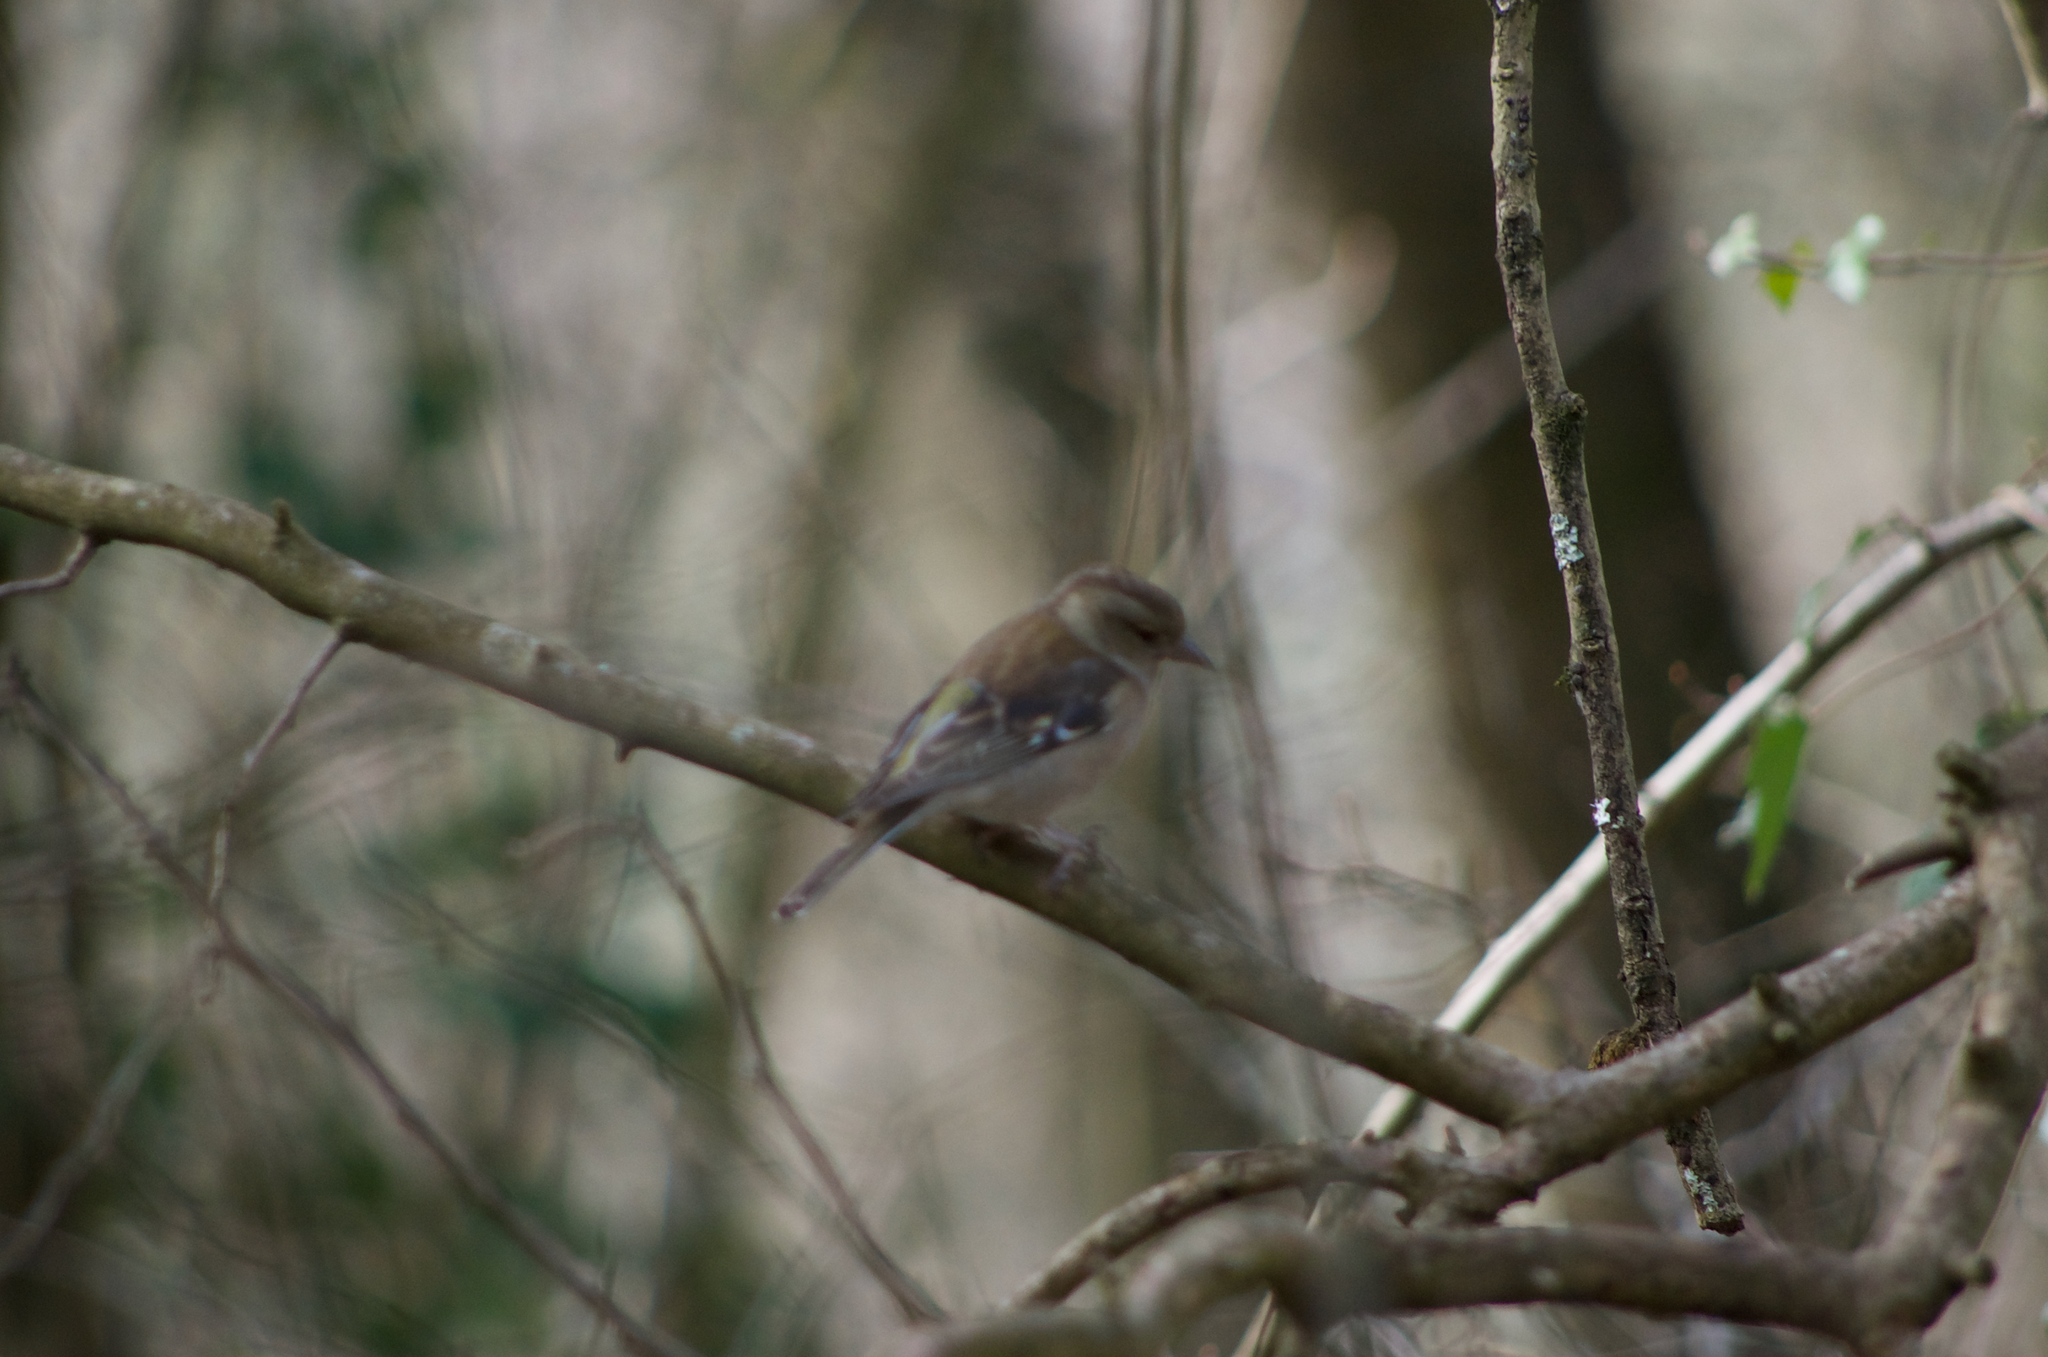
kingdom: Animalia
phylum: Chordata
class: Aves
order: Passeriformes
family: Fringillidae
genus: Fringilla
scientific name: Fringilla coelebs
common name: Common chaffinch
